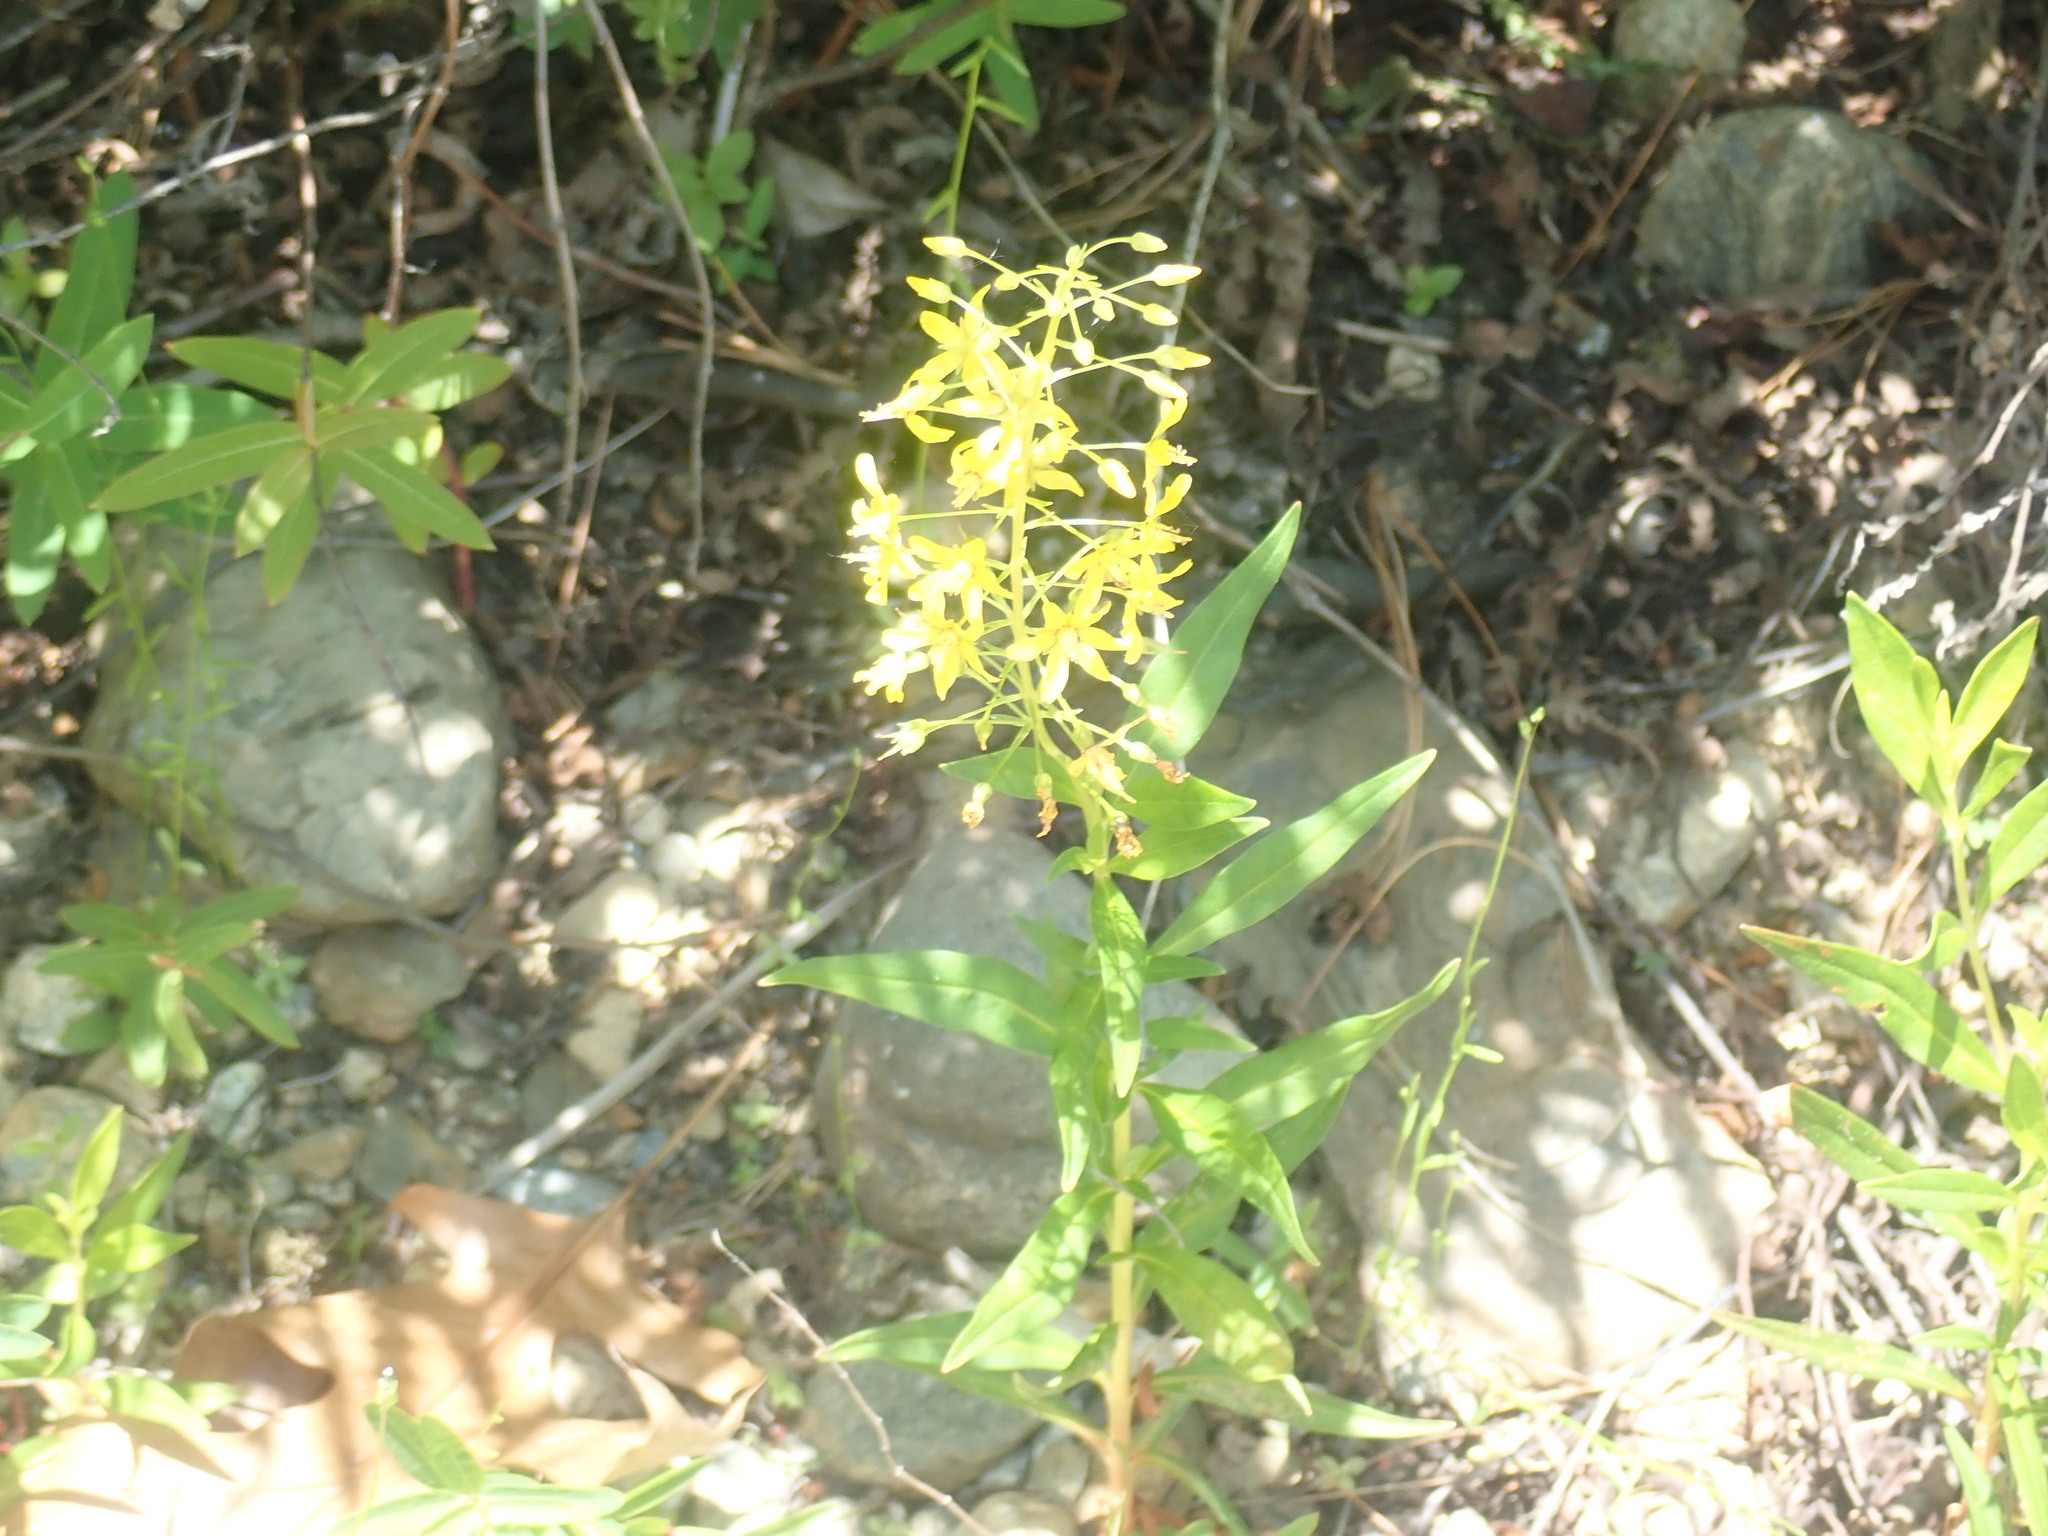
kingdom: Plantae
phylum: Tracheophyta
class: Magnoliopsida
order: Ericales
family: Primulaceae
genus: Lysimachia
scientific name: Lysimachia terrestris
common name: Lake loosestrife
